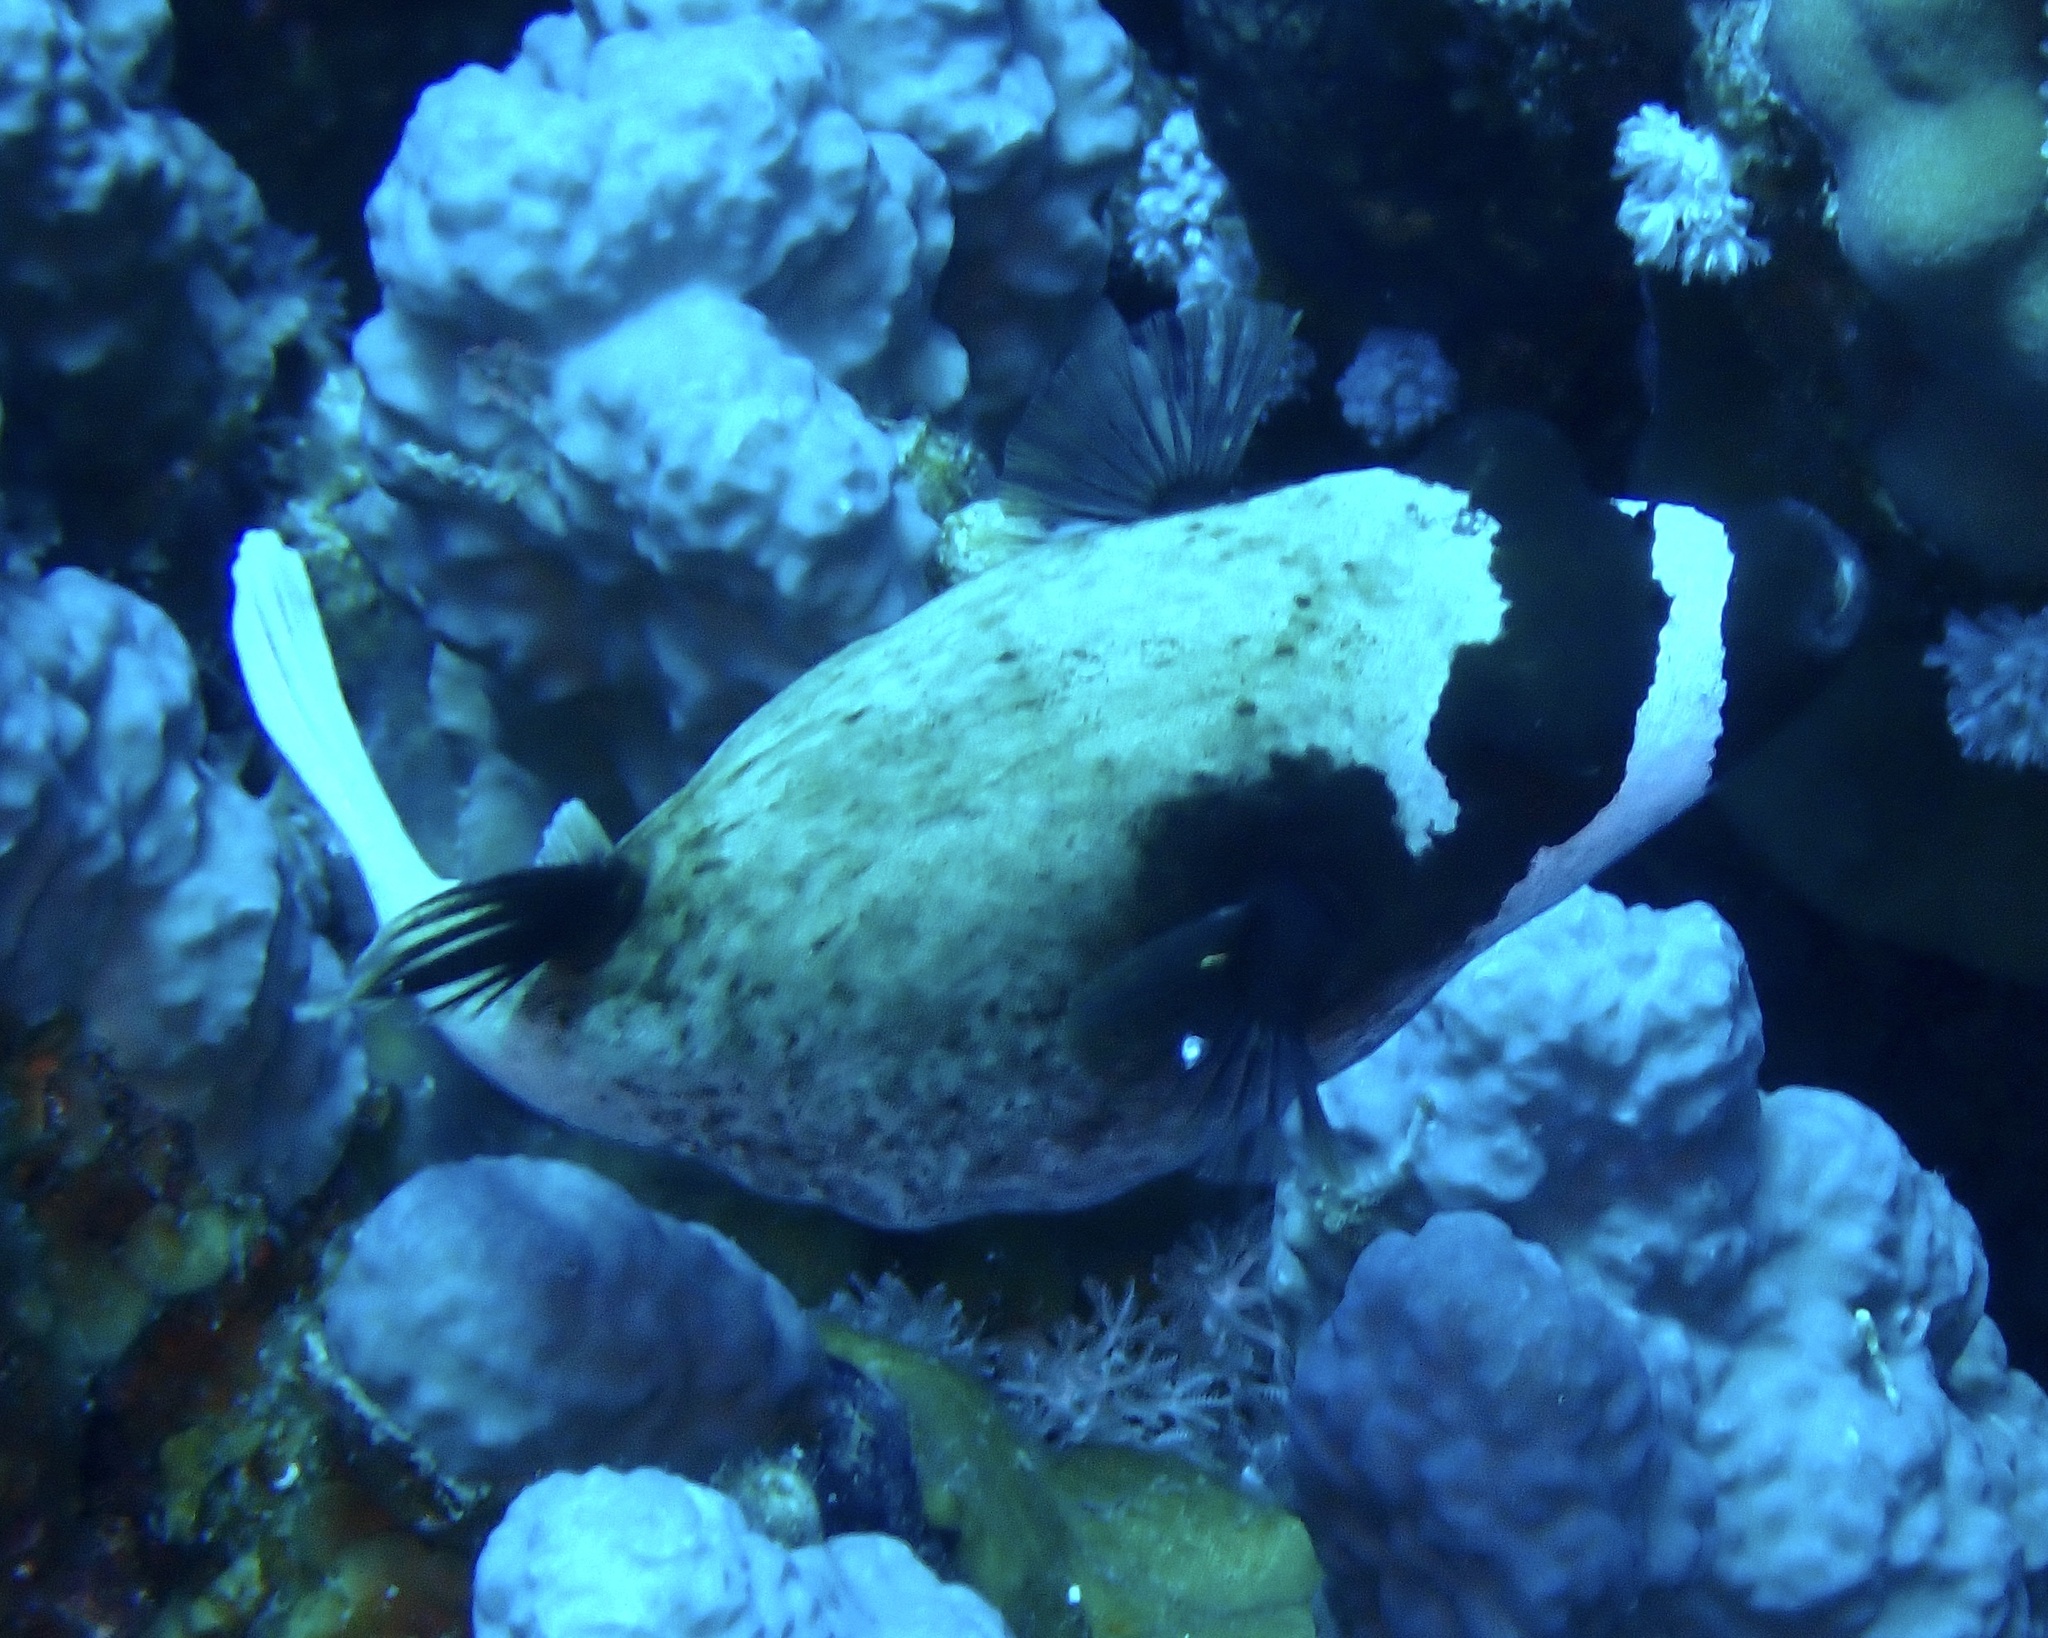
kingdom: Animalia
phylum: Chordata
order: Tetraodontiformes
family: Tetraodontidae
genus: Arothron
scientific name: Arothron diadematus
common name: Masked puffer
